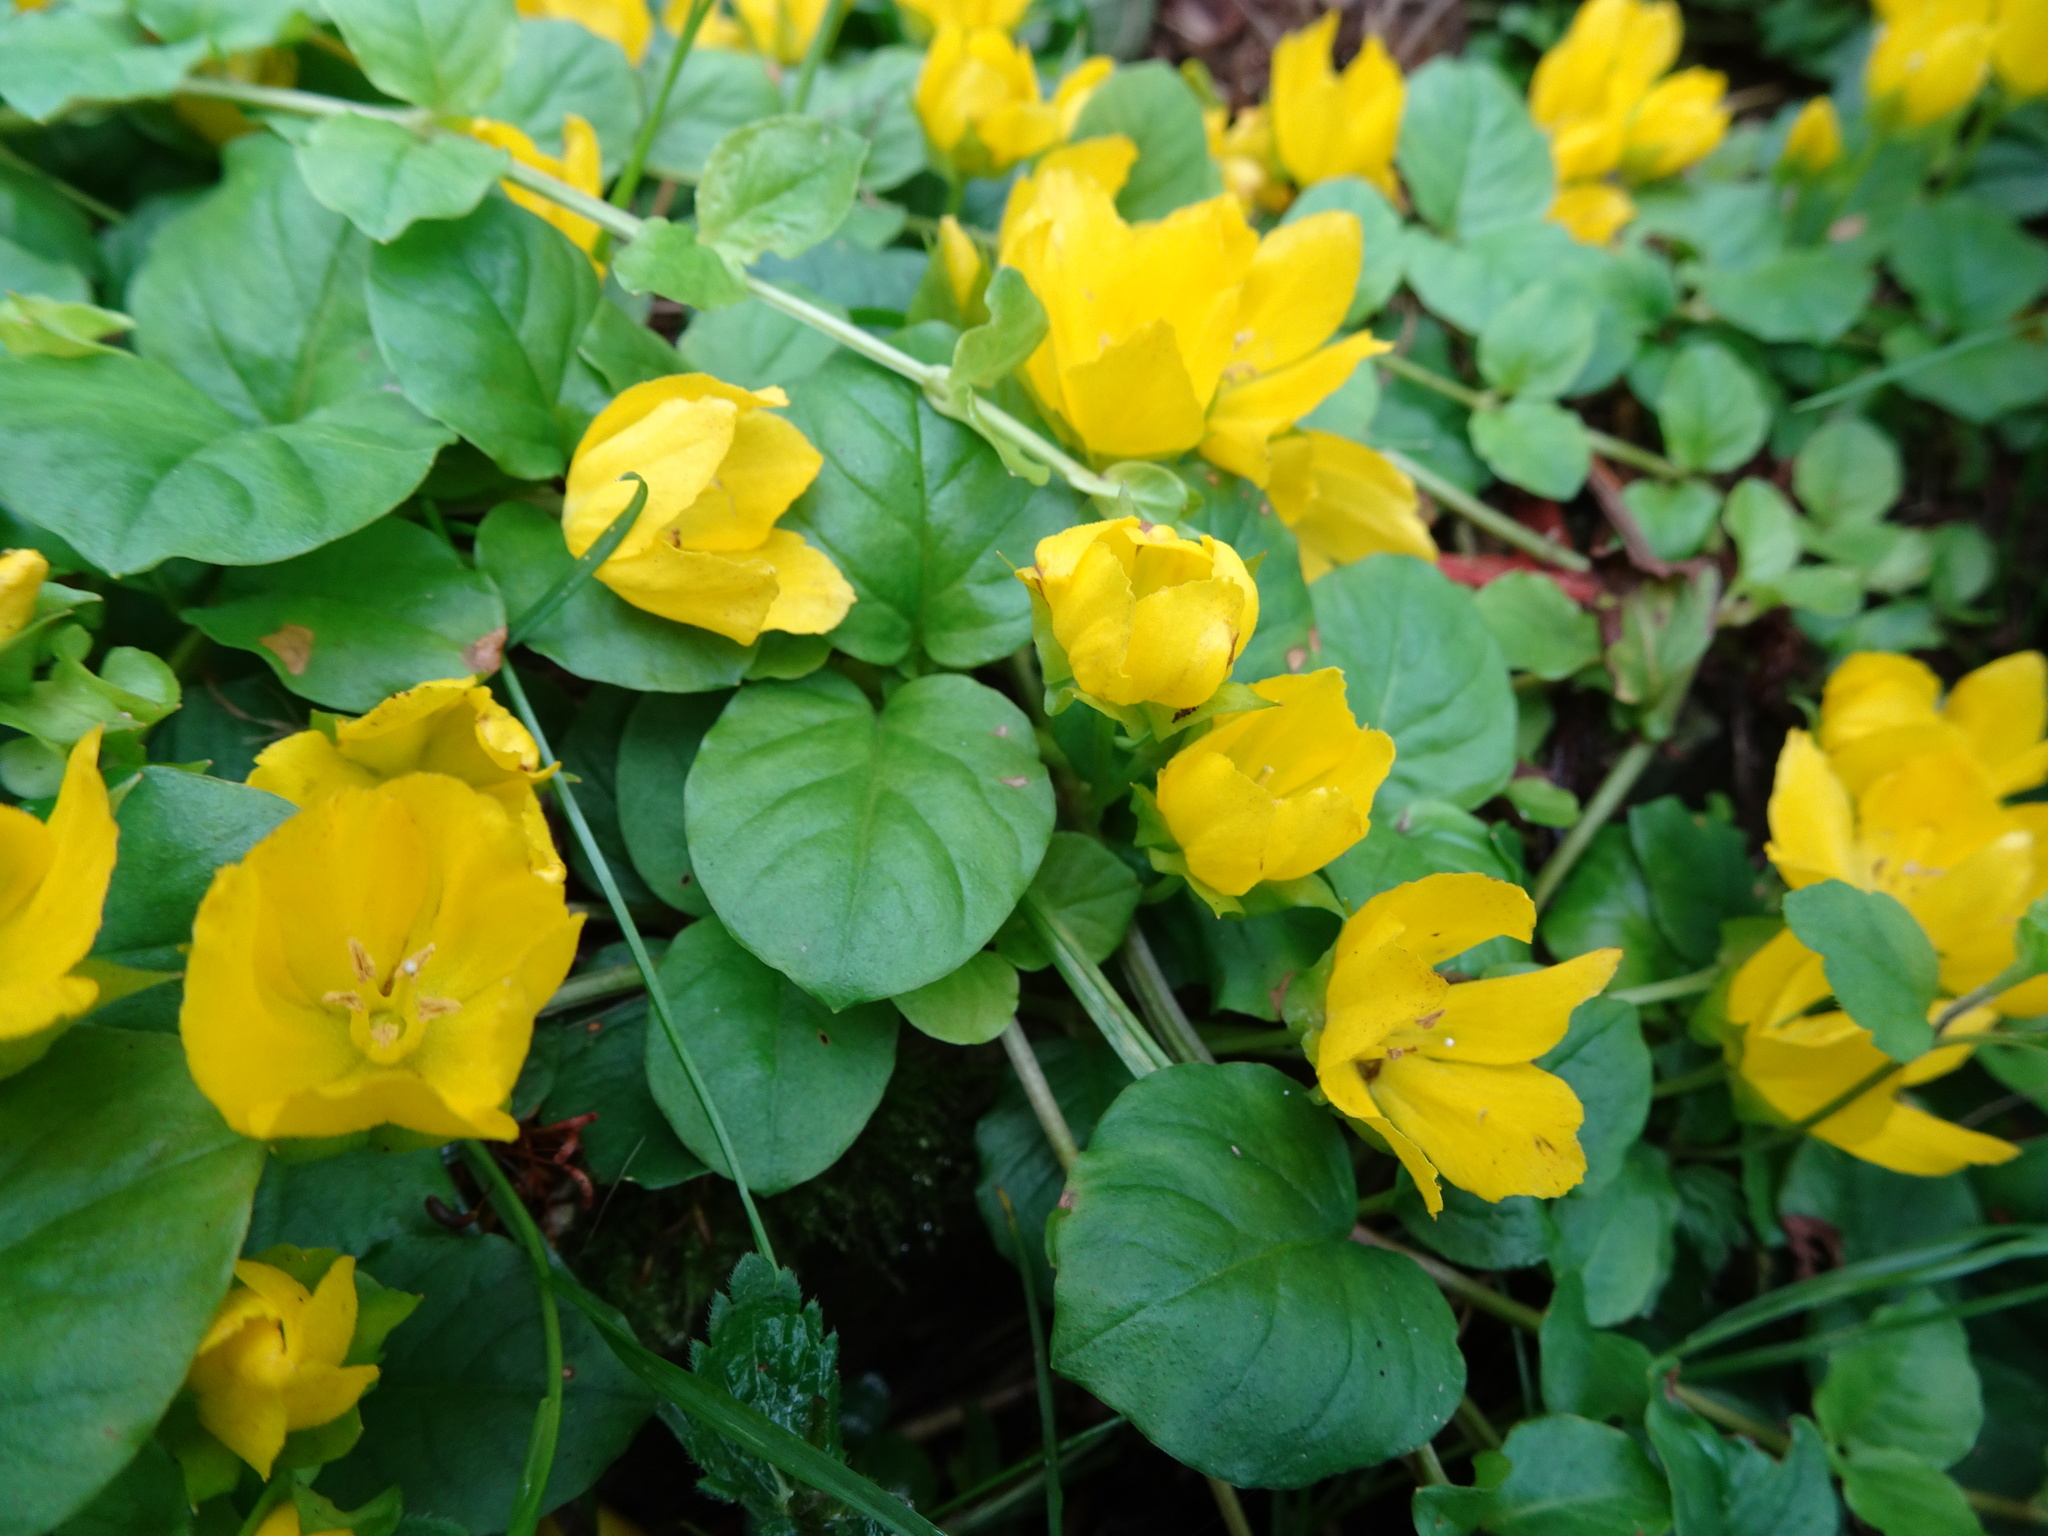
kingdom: Plantae
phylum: Tracheophyta
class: Magnoliopsida
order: Ericales
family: Primulaceae
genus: Lysimachia
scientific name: Lysimachia nummularia
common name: Moneywort
